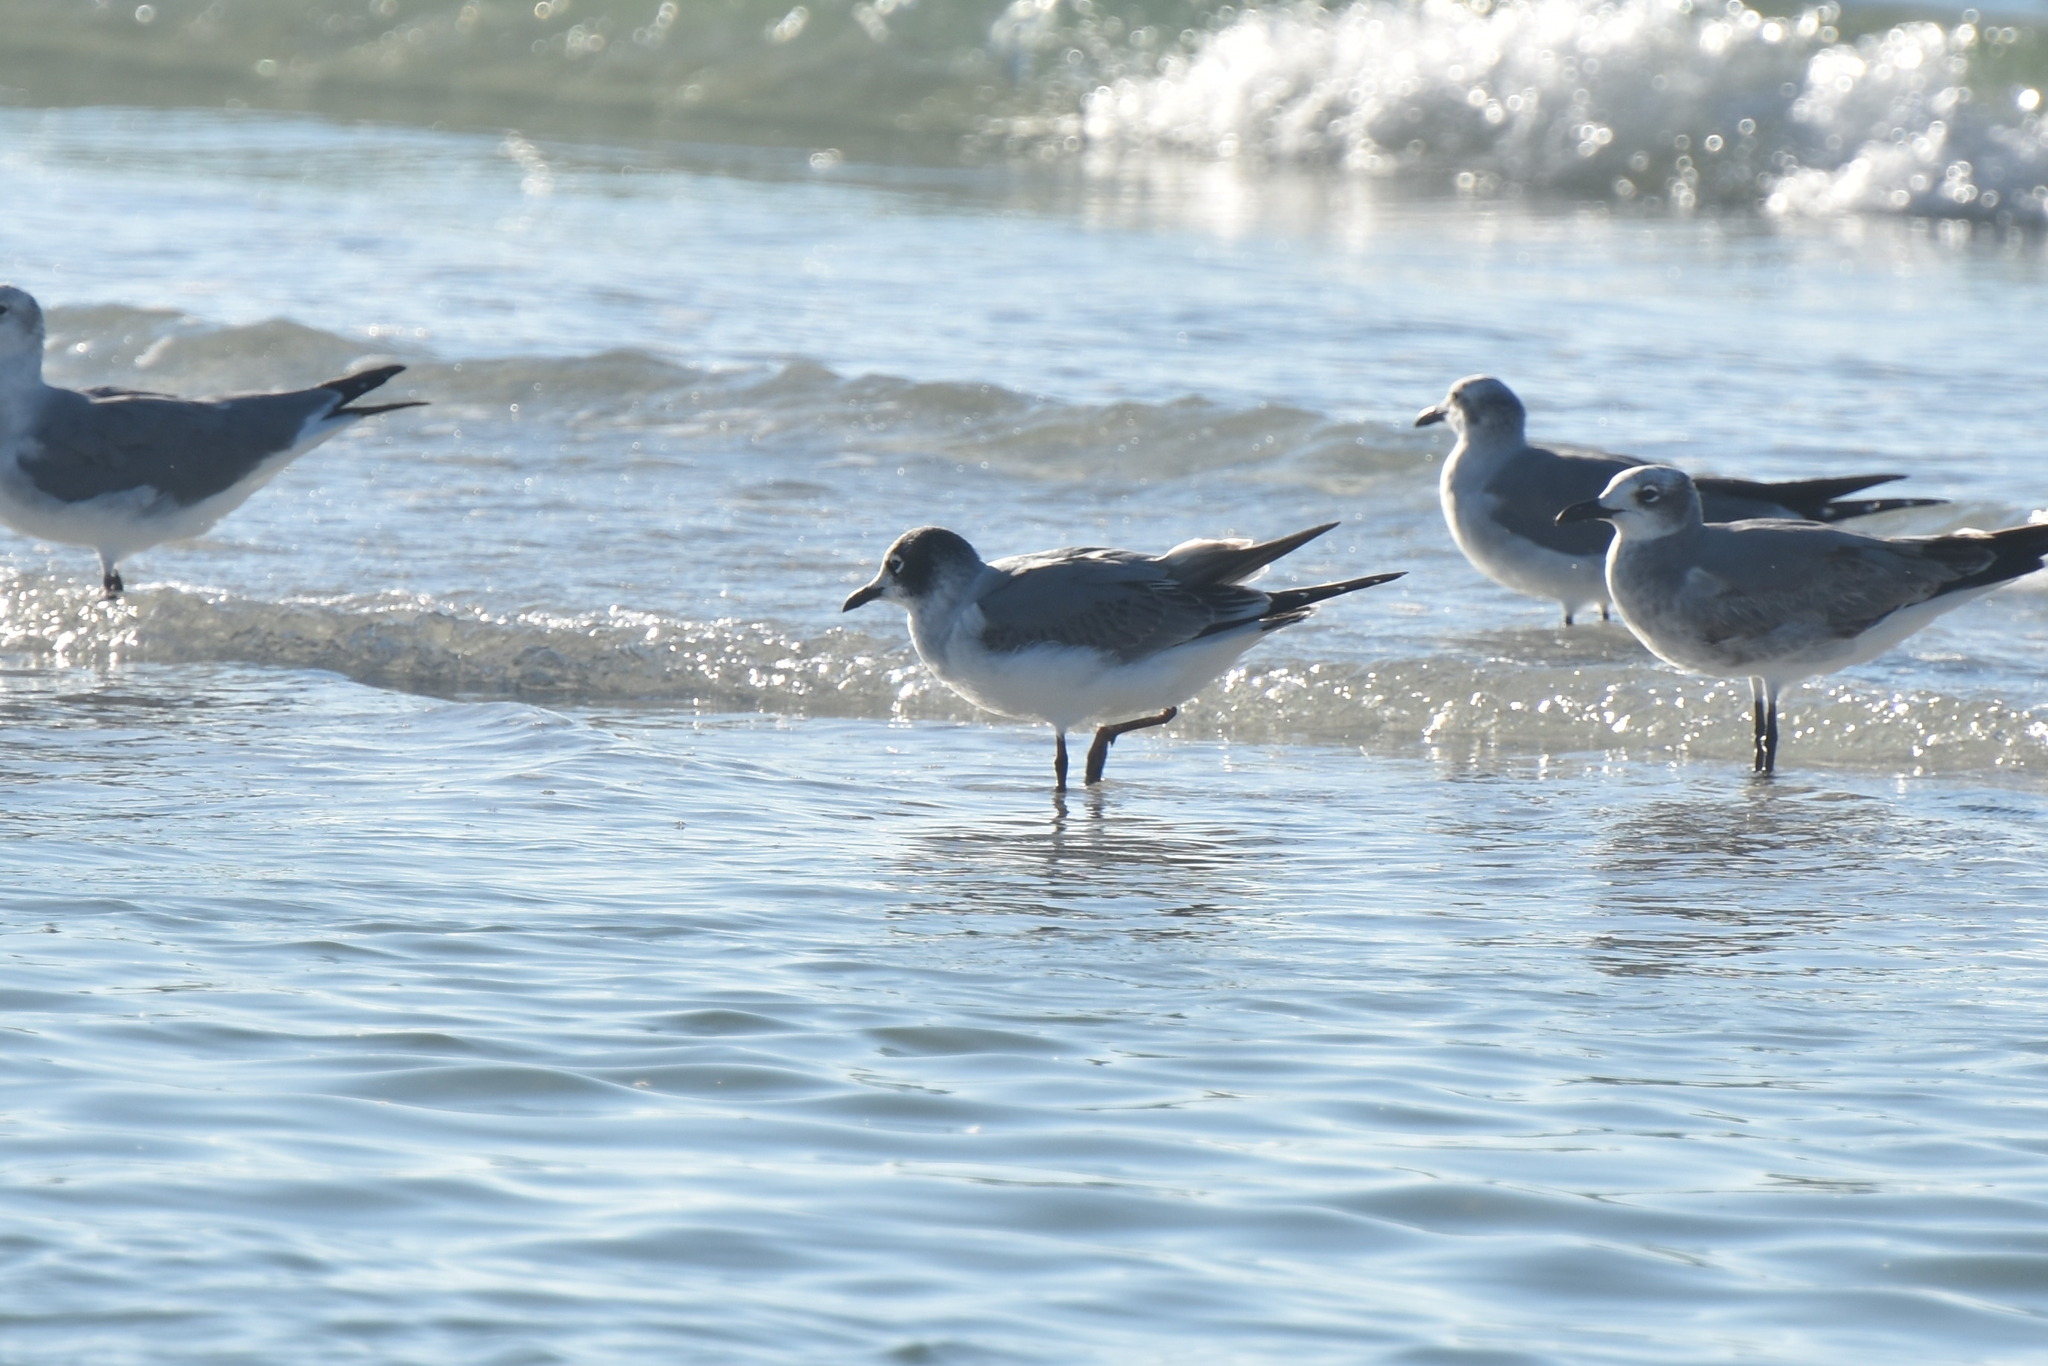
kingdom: Animalia
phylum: Chordata
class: Aves
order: Charadriiformes
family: Laridae
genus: Leucophaeus
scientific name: Leucophaeus pipixcan
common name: Franklin's gull
